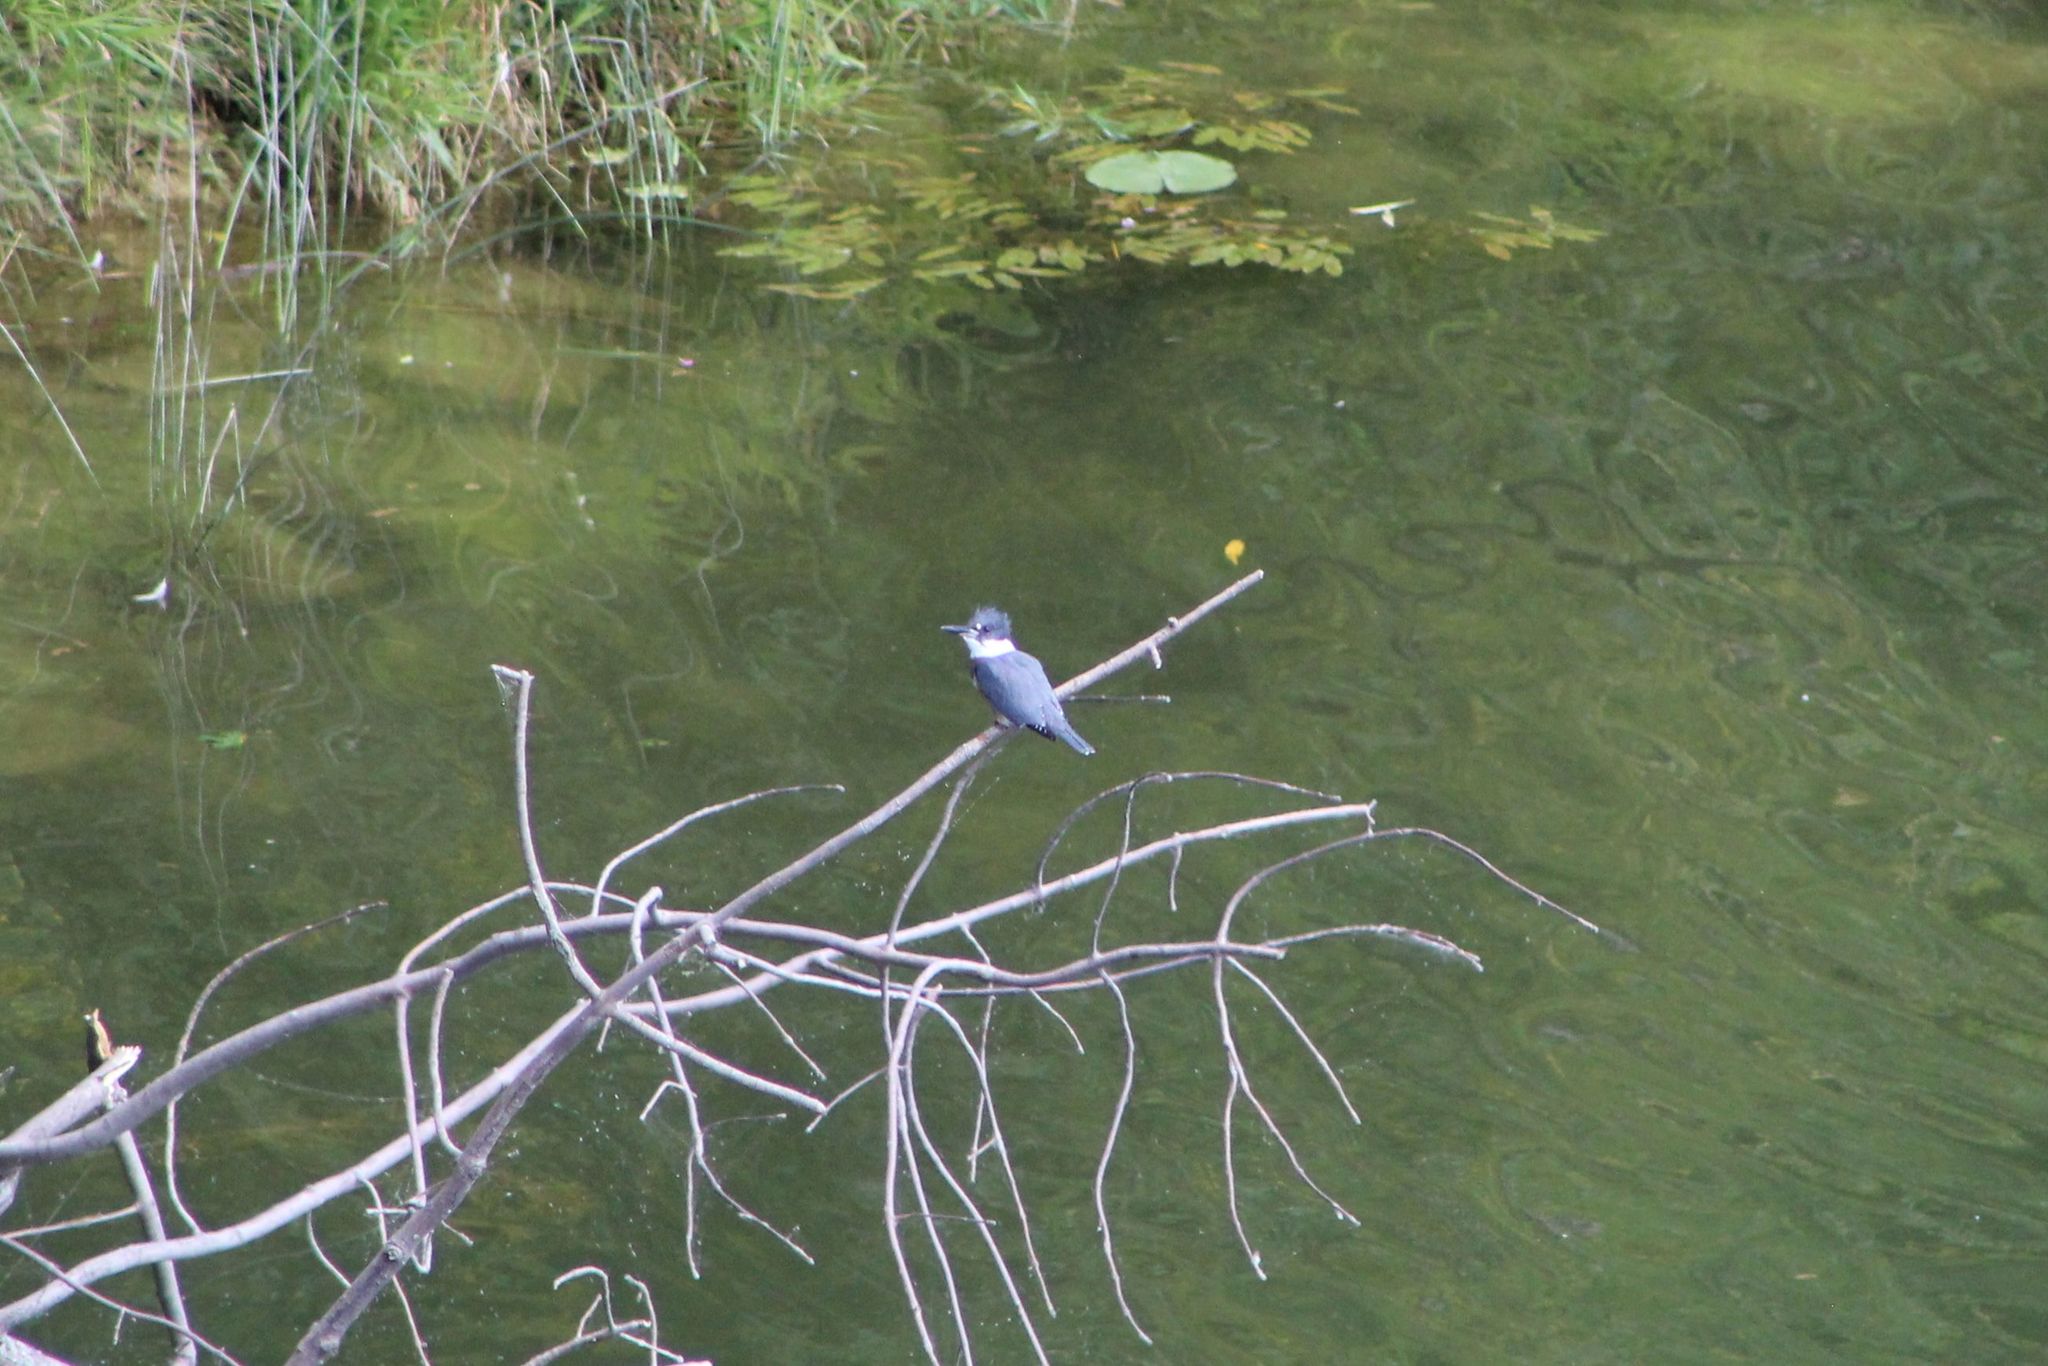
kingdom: Animalia
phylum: Chordata
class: Aves
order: Coraciiformes
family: Alcedinidae
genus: Megaceryle
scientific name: Megaceryle alcyon
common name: Belted kingfisher
